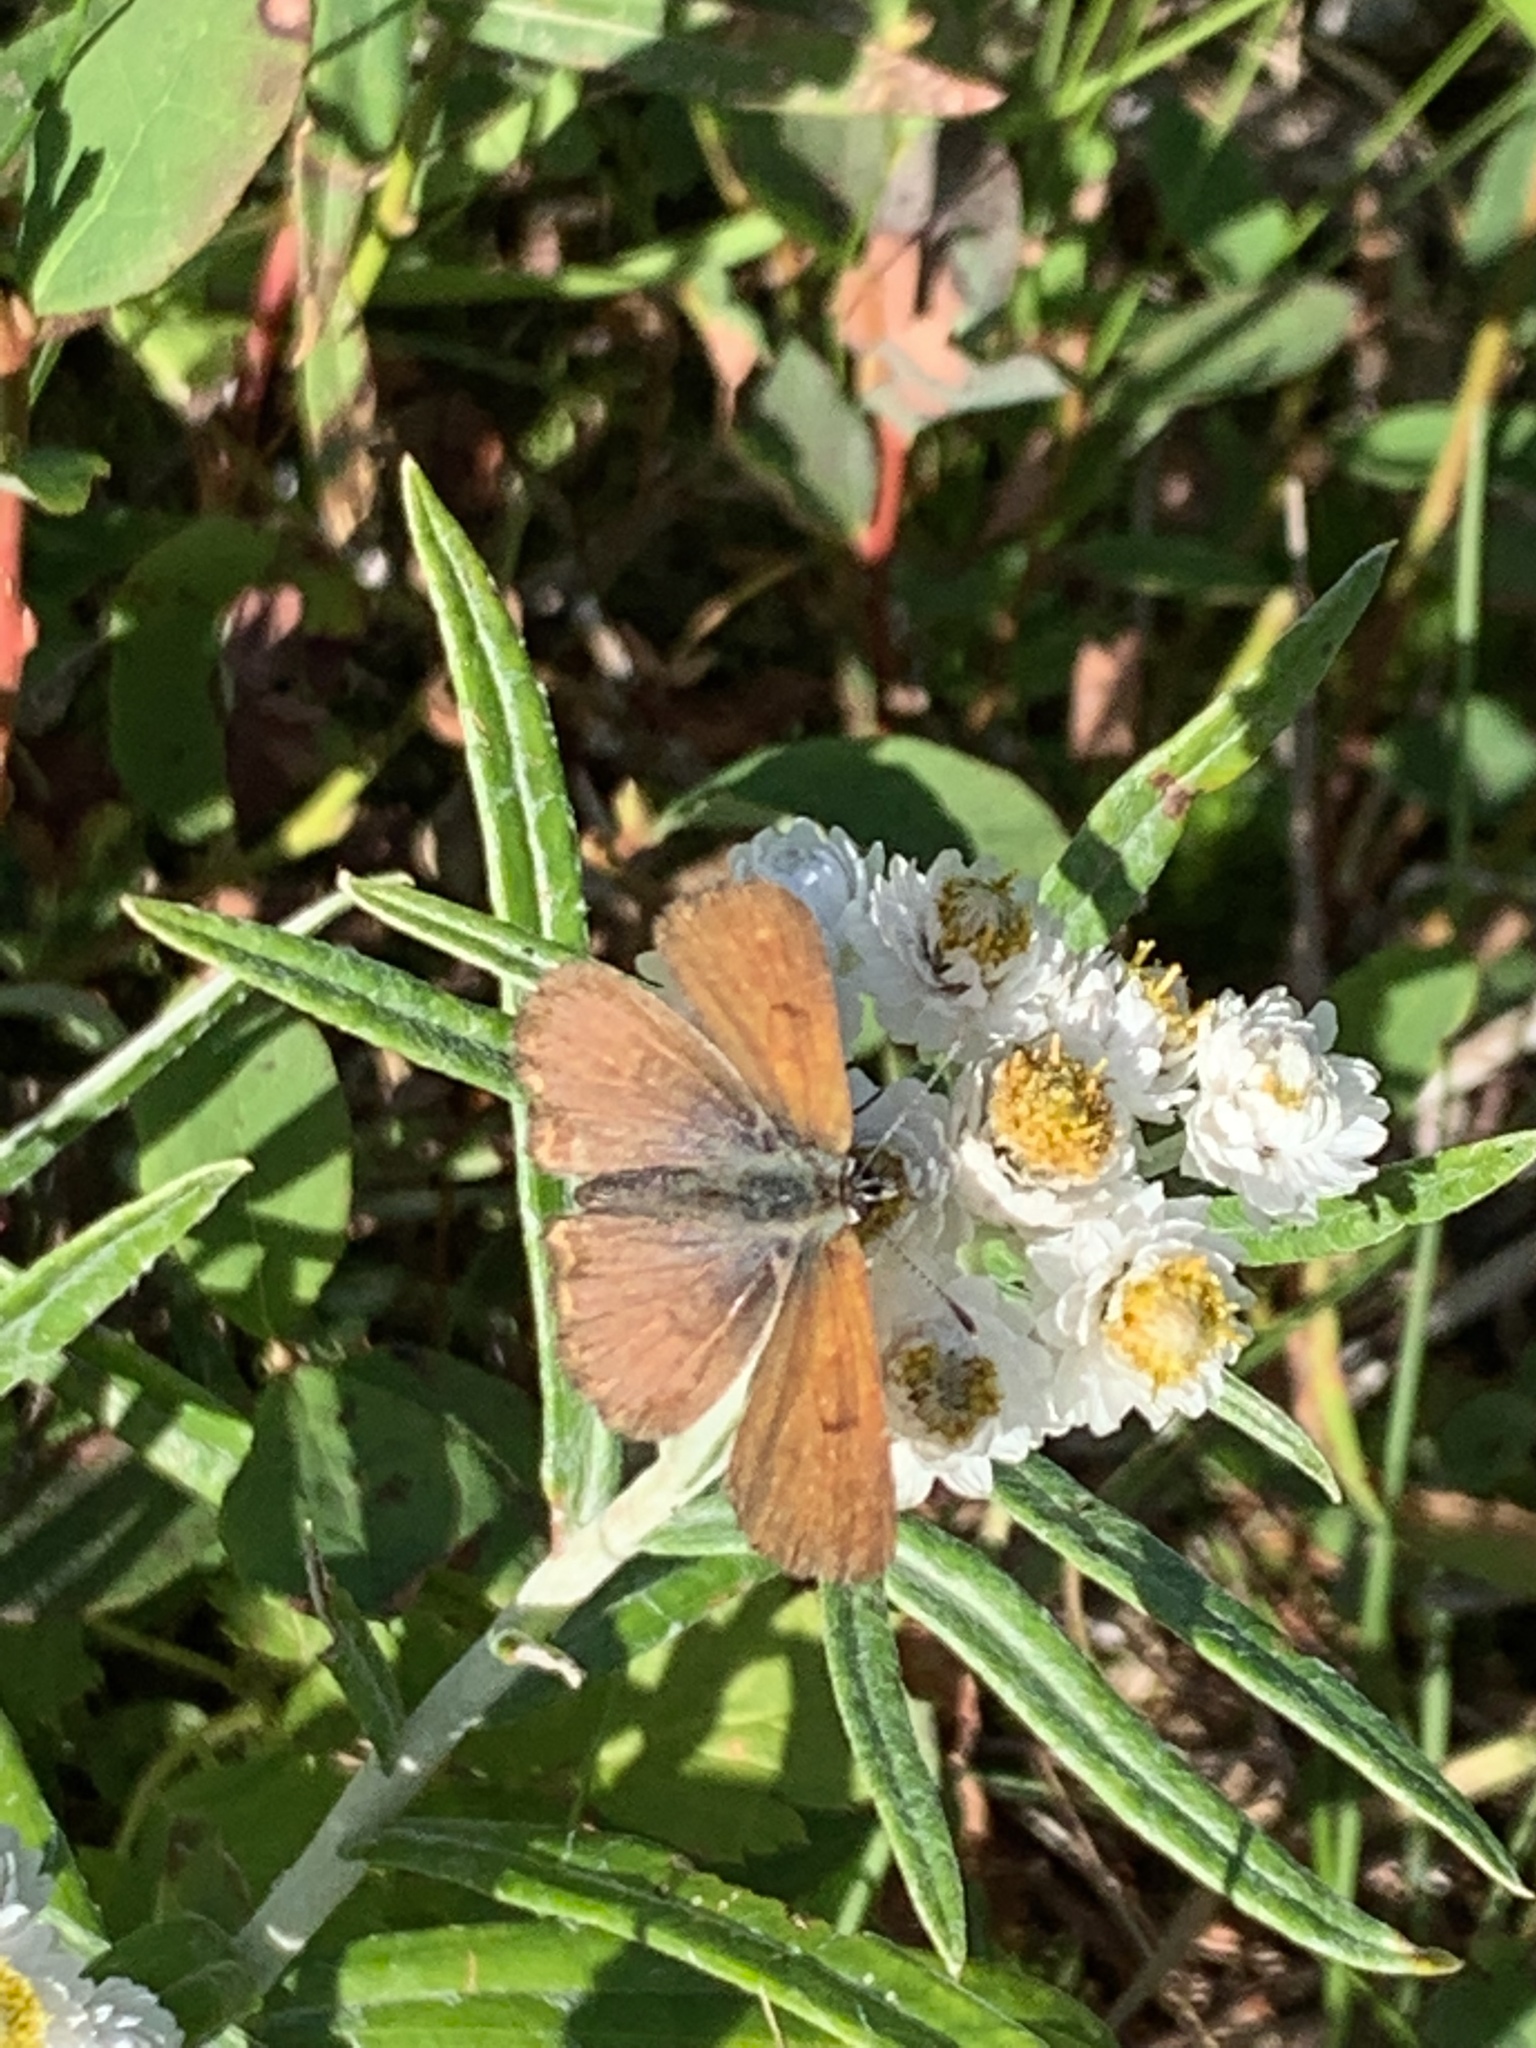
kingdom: Animalia
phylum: Arthropoda
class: Insecta
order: Lepidoptera
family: Lycaenidae
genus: Tharsalea
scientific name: Tharsalea mariposa
